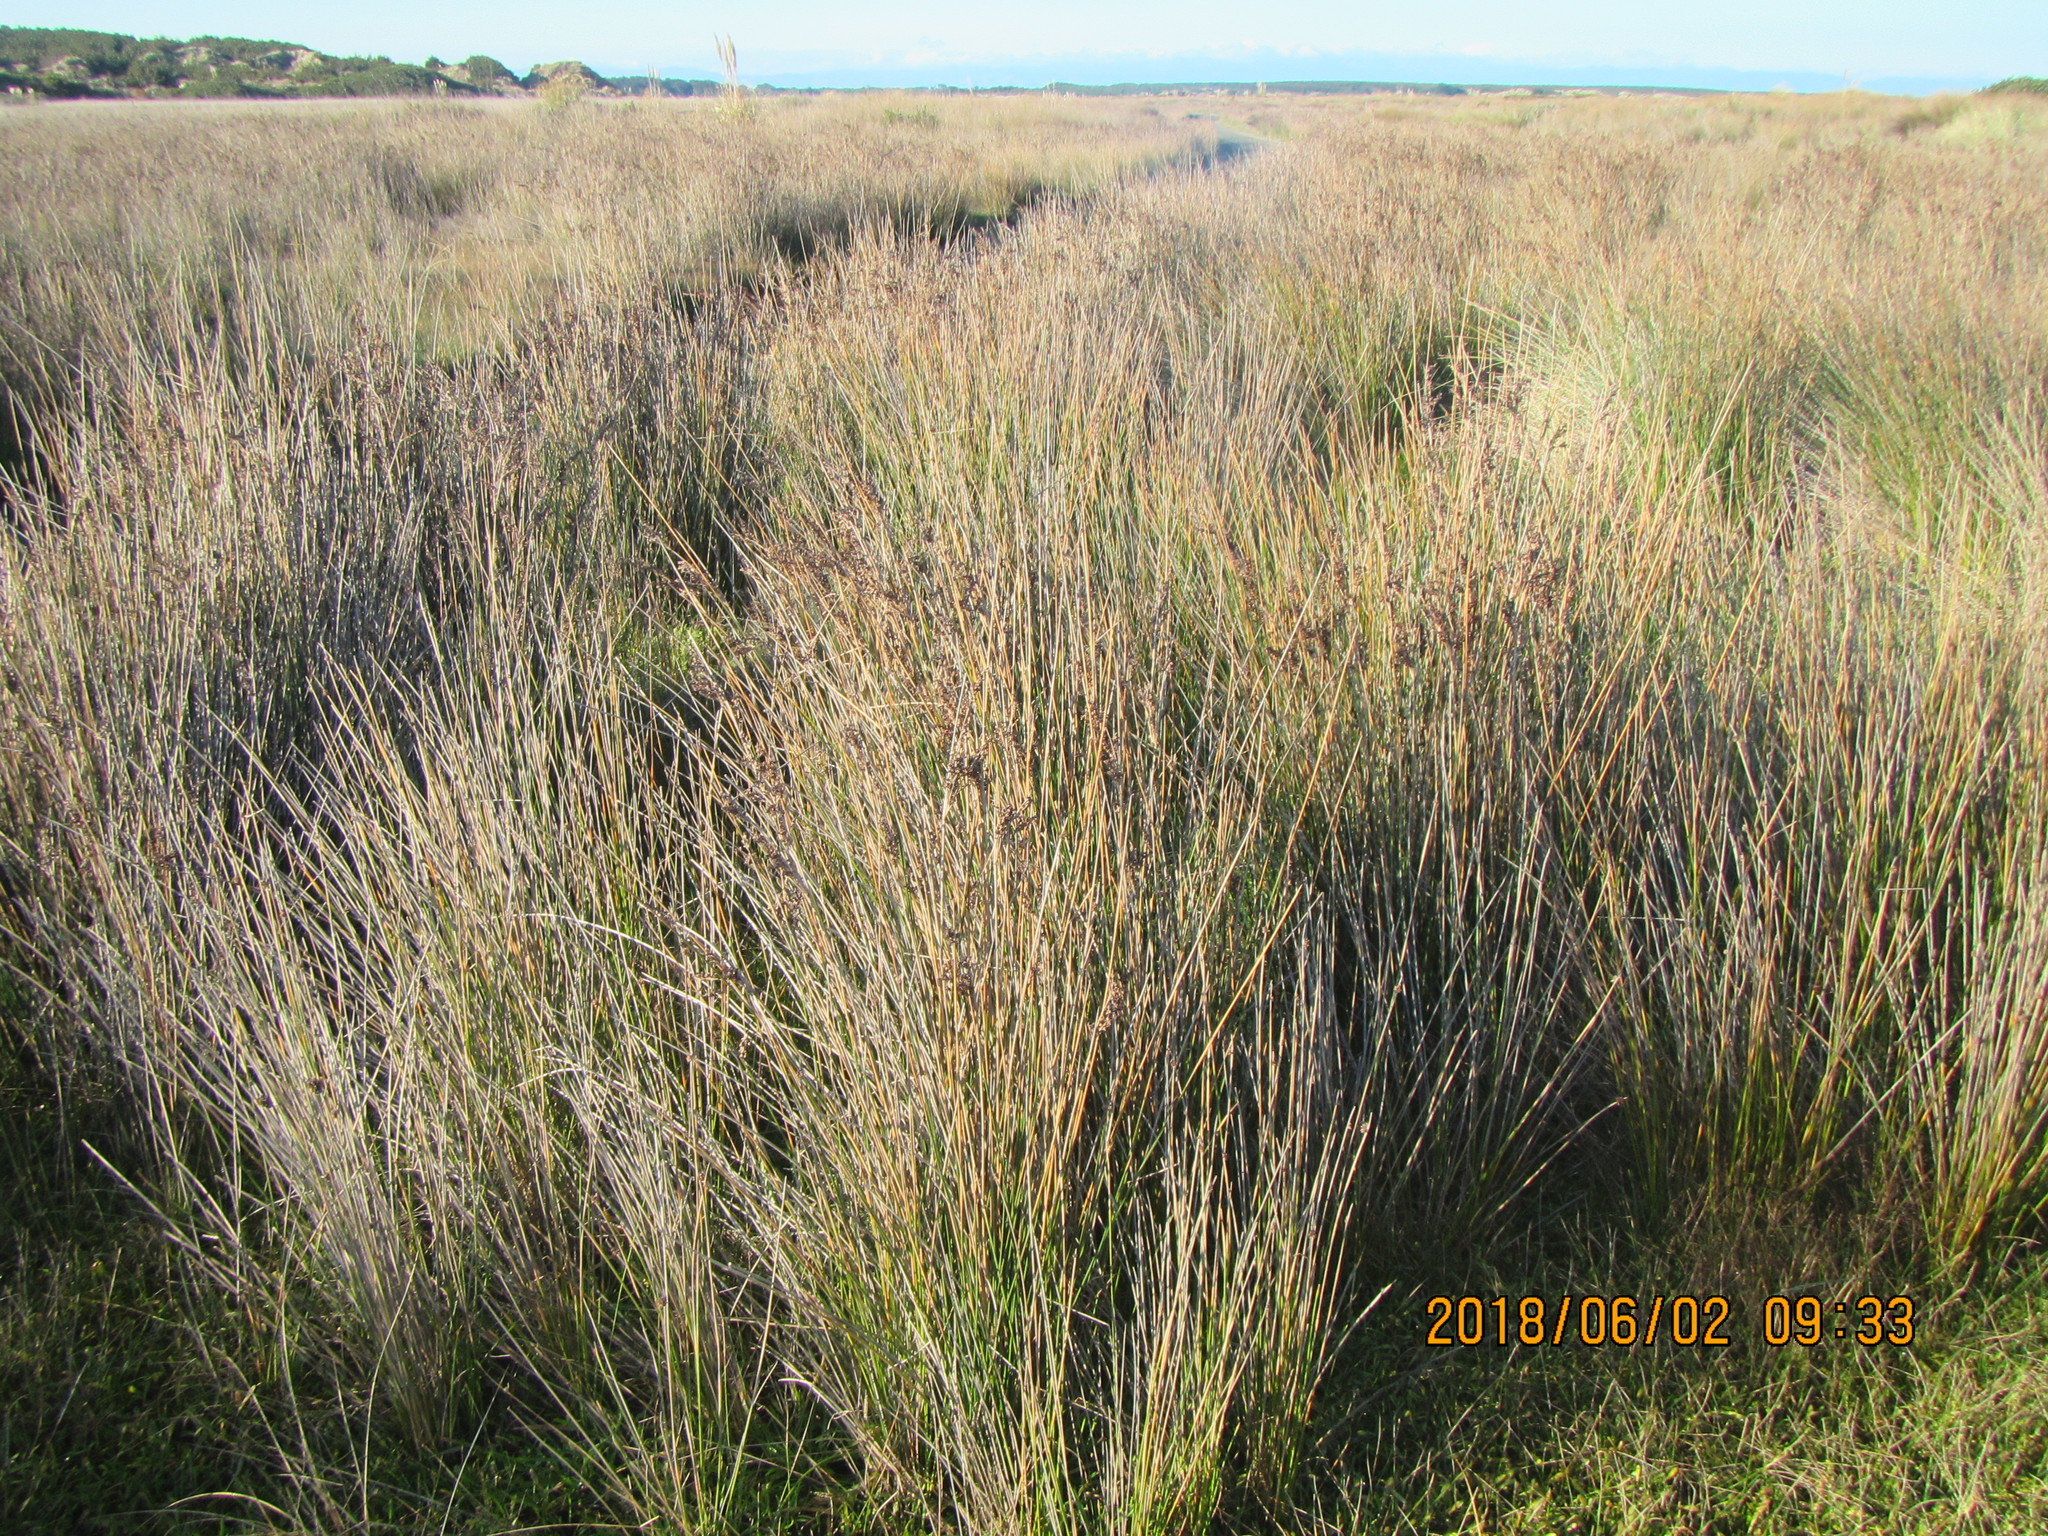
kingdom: Plantae
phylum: Tracheophyta
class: Liliopsida
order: Poales
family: Juncaceae
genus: Juncus
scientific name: Juncus kraussii
